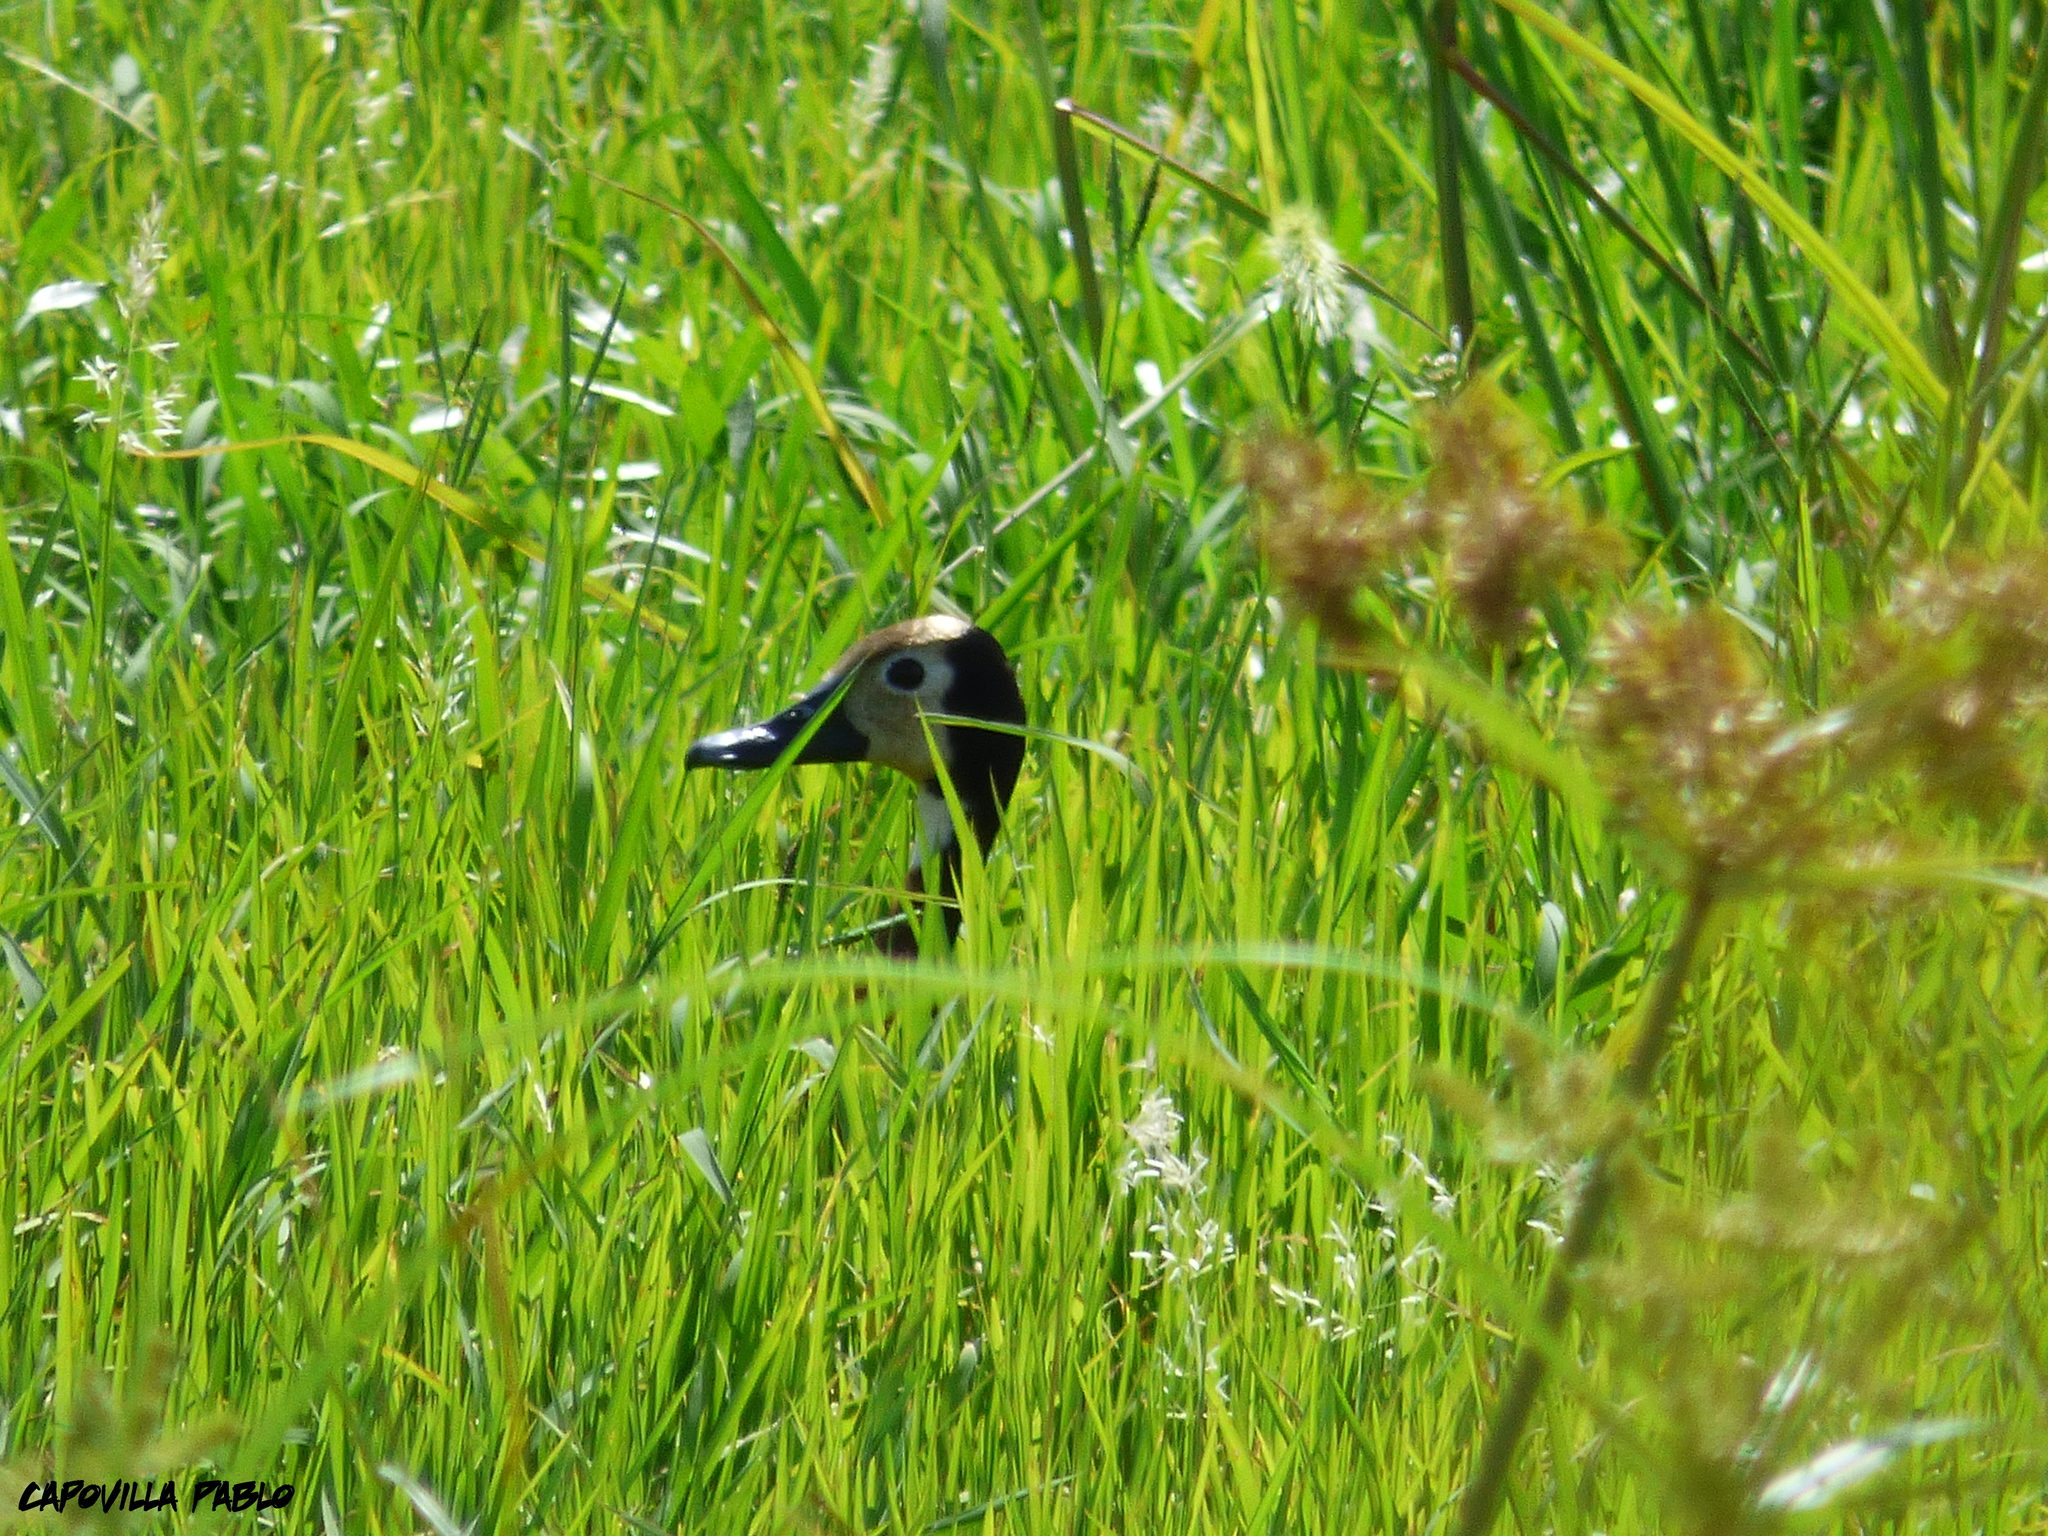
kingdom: Animalia
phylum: Chordata
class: Aves
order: Anseriformes
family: Anatidae
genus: Dendrocygna
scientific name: Dendrocygna viduata
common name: White-faced whistling duck
